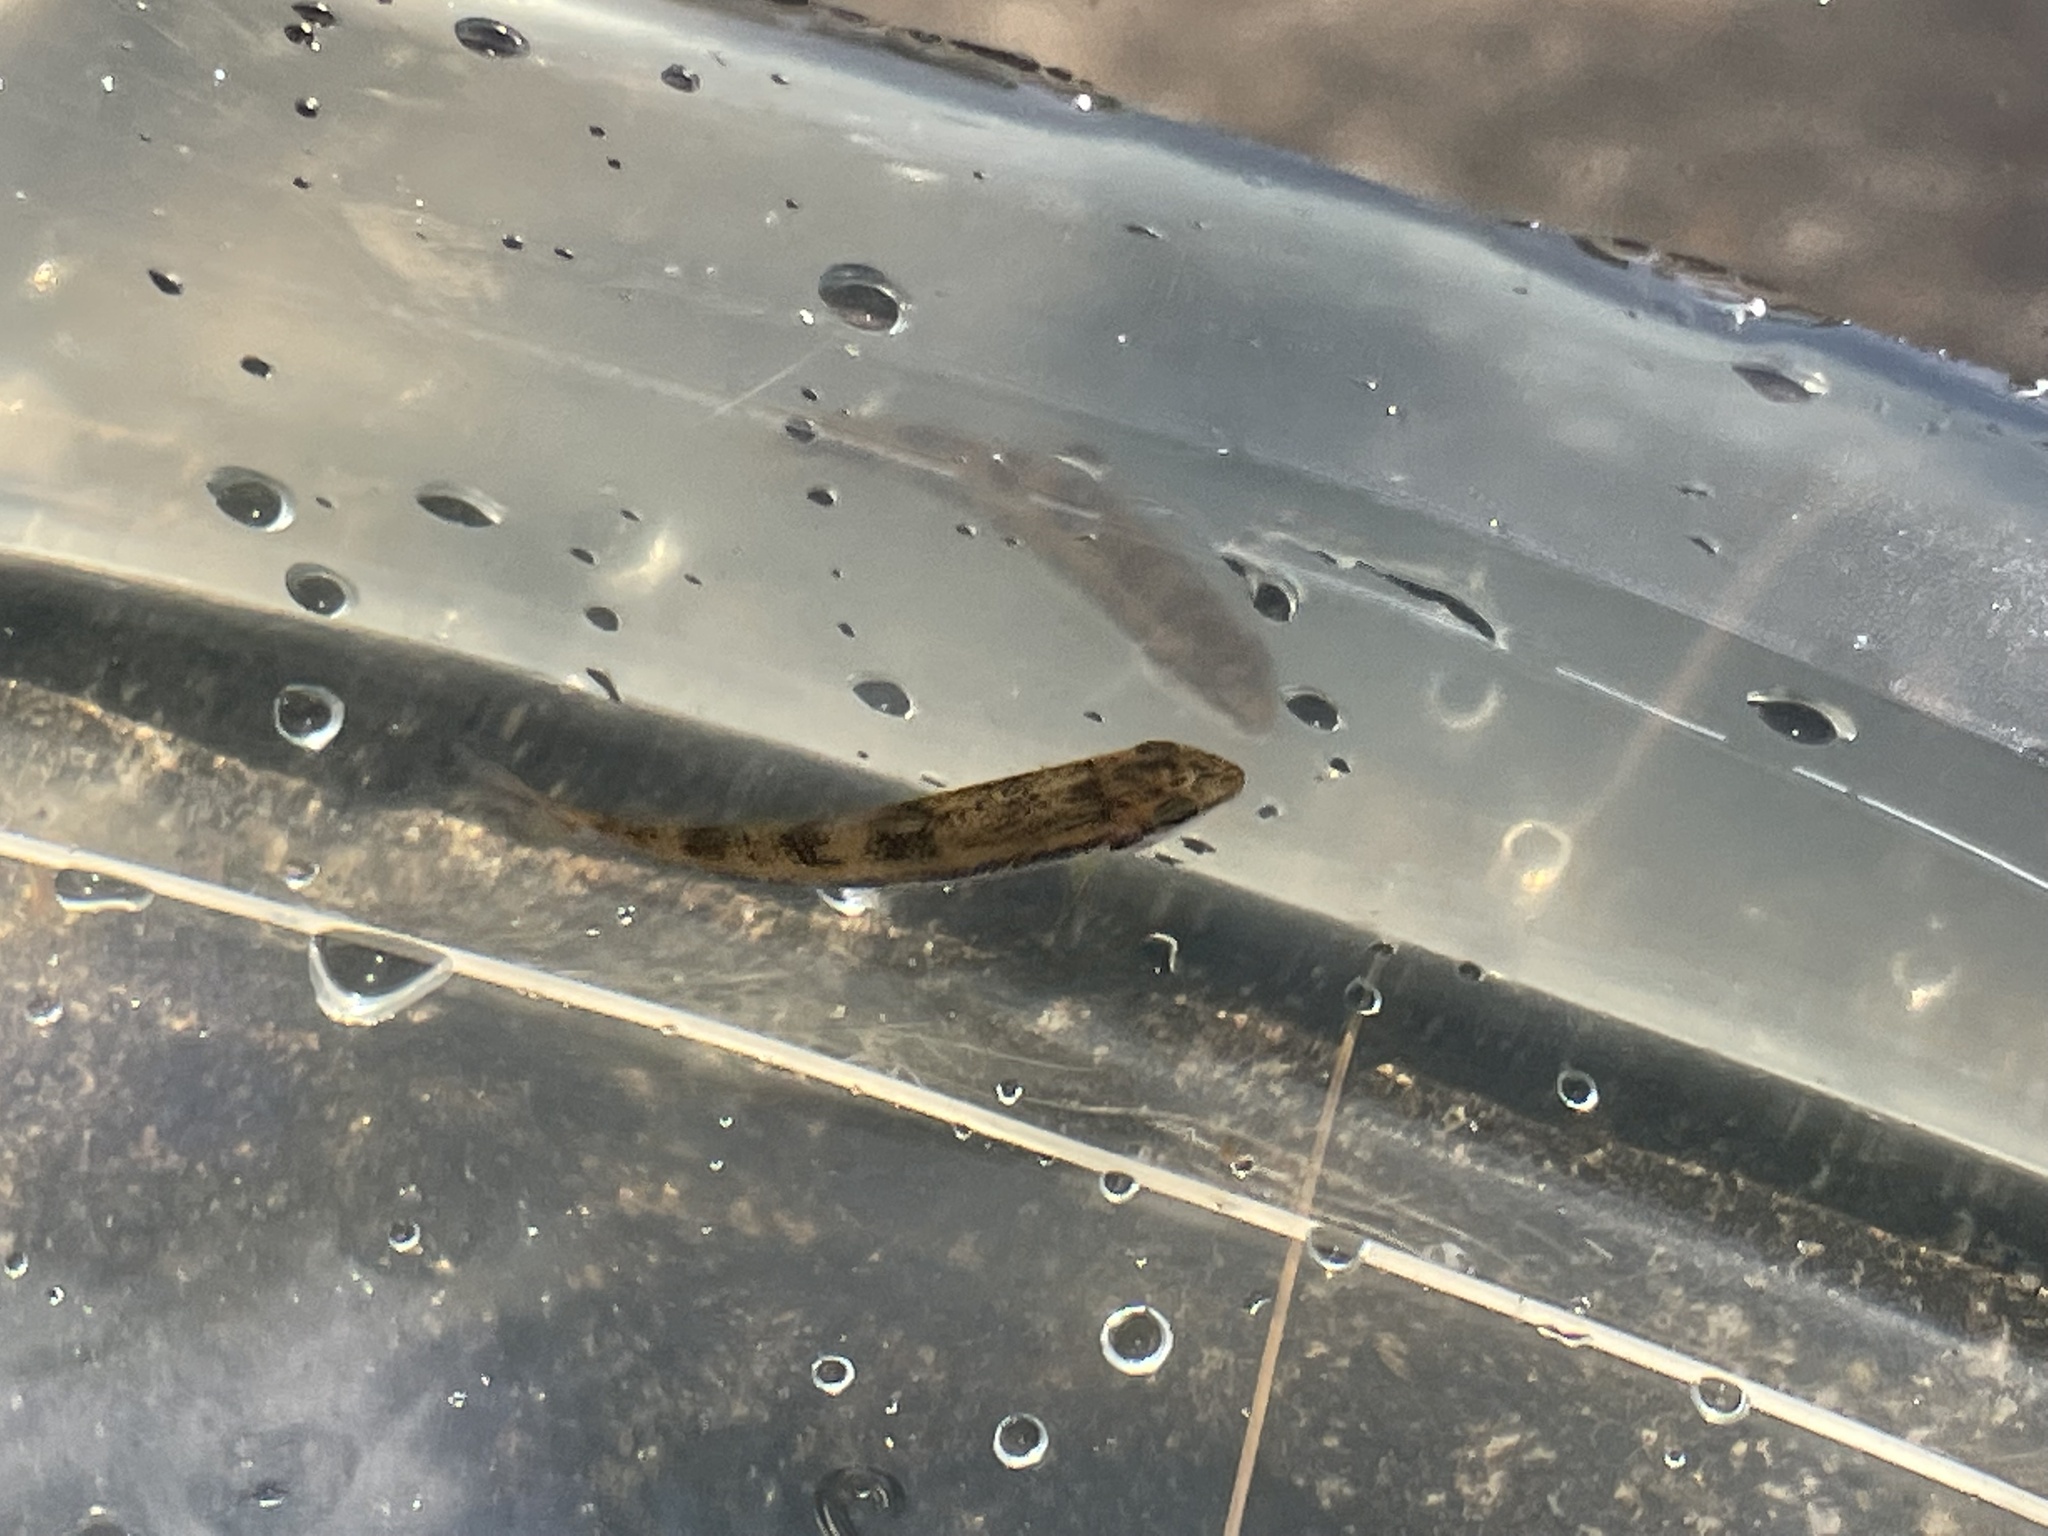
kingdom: Animalia
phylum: Chordata
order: Cypriniformes
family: Catostomidae
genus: Hypentelium
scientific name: Hypentelium etowanum
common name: Alabama hog sucker
